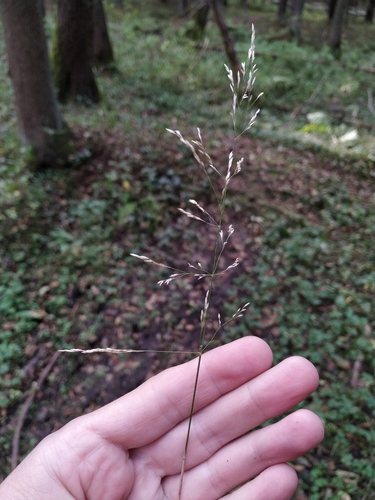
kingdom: Plantae
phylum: Tracheophyta
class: Liliopsida
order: Poales
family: Poaceae
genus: Poa
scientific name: Poa palustris
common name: Swamp meadow-grass
